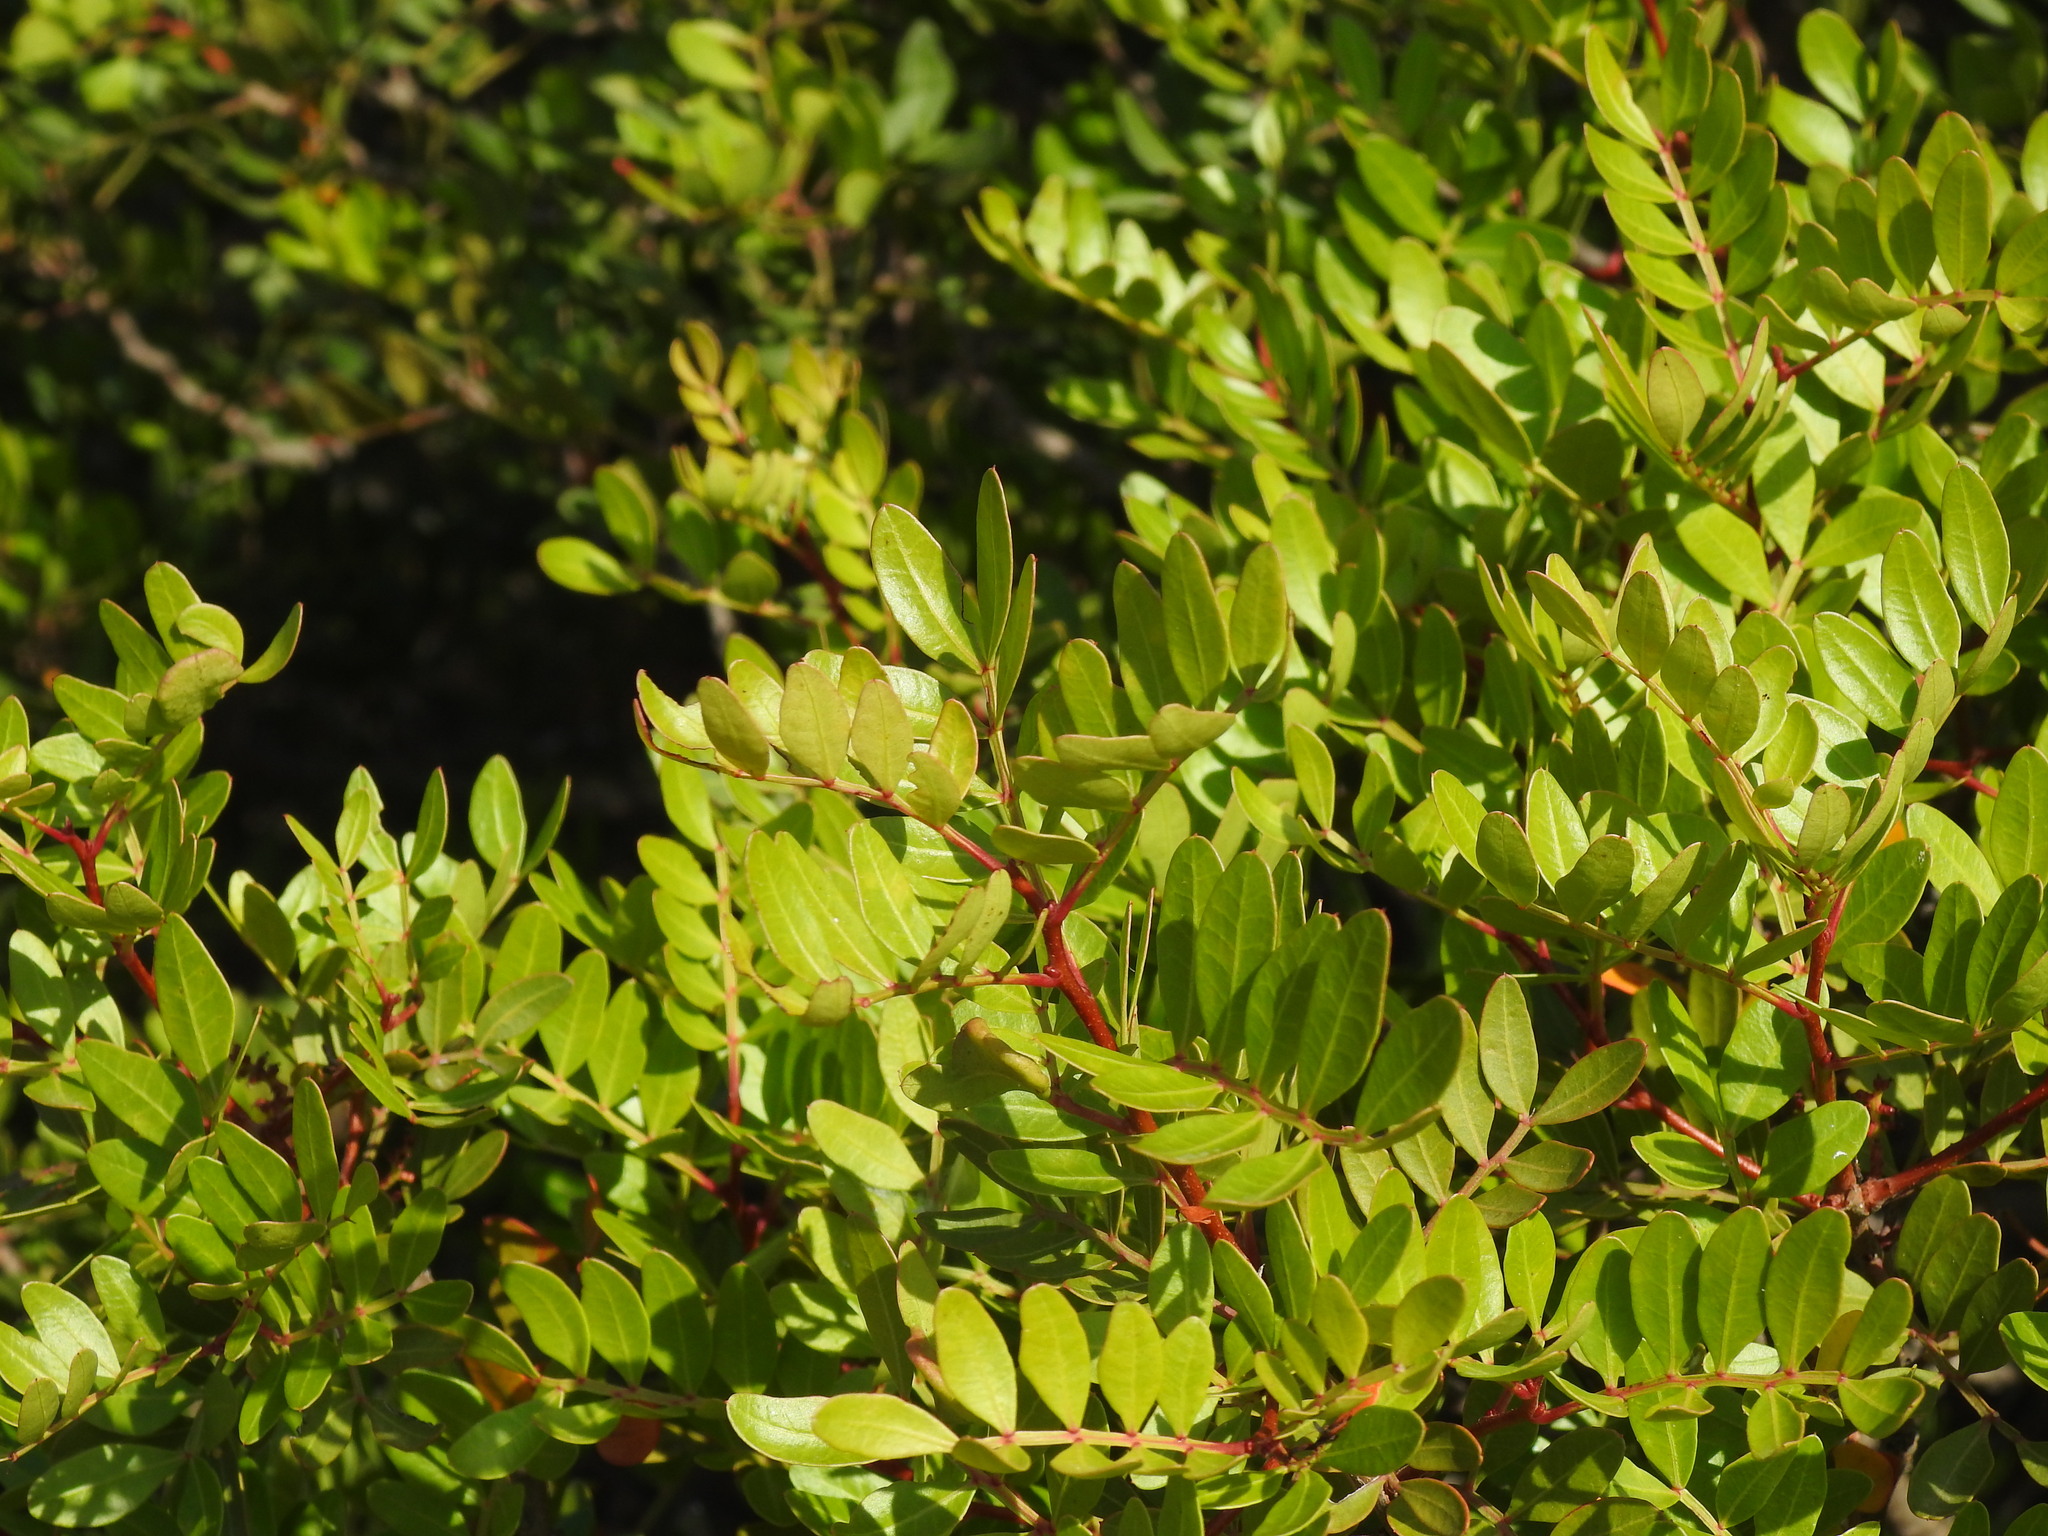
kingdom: Plantae
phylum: Tracheophyta
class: Magnoliopsida
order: Sapindales
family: Anacardiaceae
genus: Pistacia
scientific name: Pistacia lentiscus
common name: Lentisk
